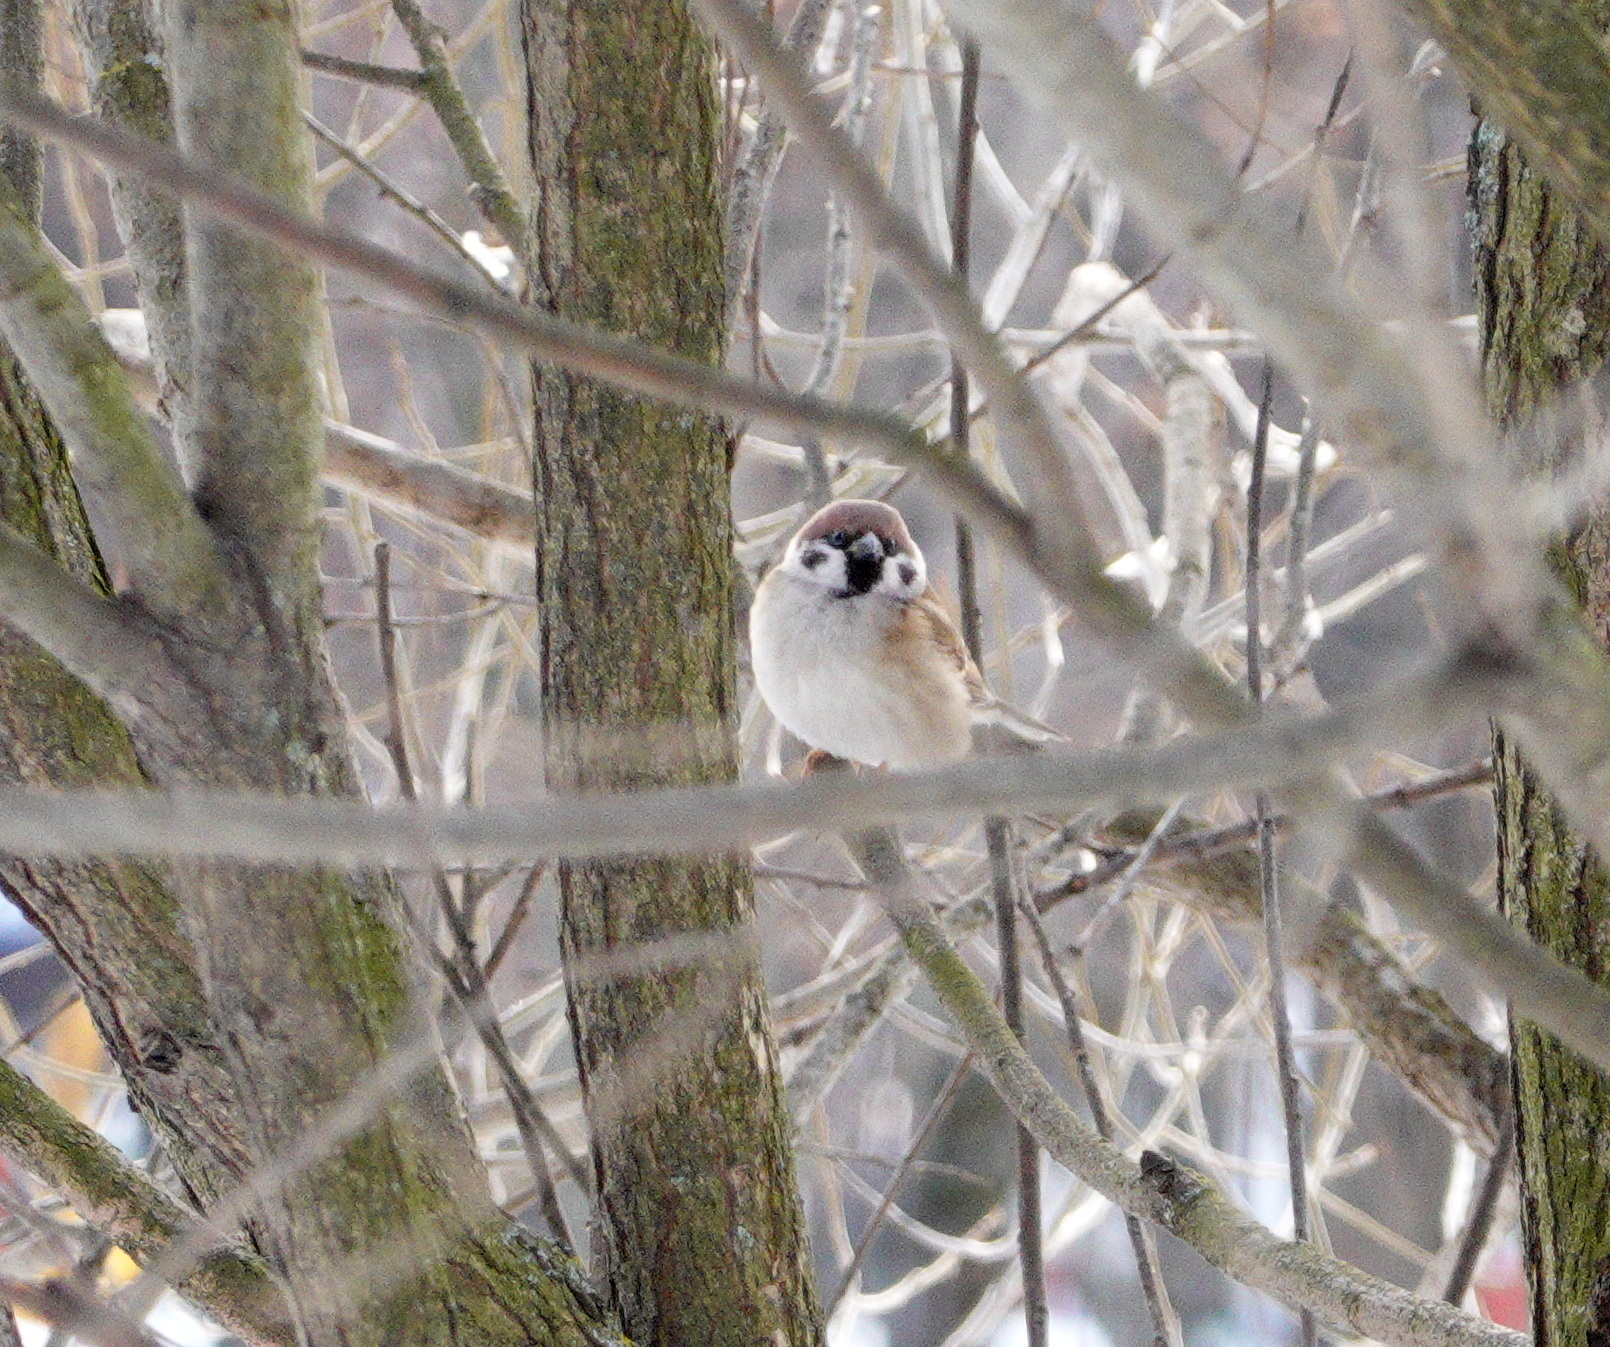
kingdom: Animalia
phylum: Chordata
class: Aves
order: Passeriformes
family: Passeridae
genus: Passer
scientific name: Passer montanus
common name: Eurasian tree sparrow
